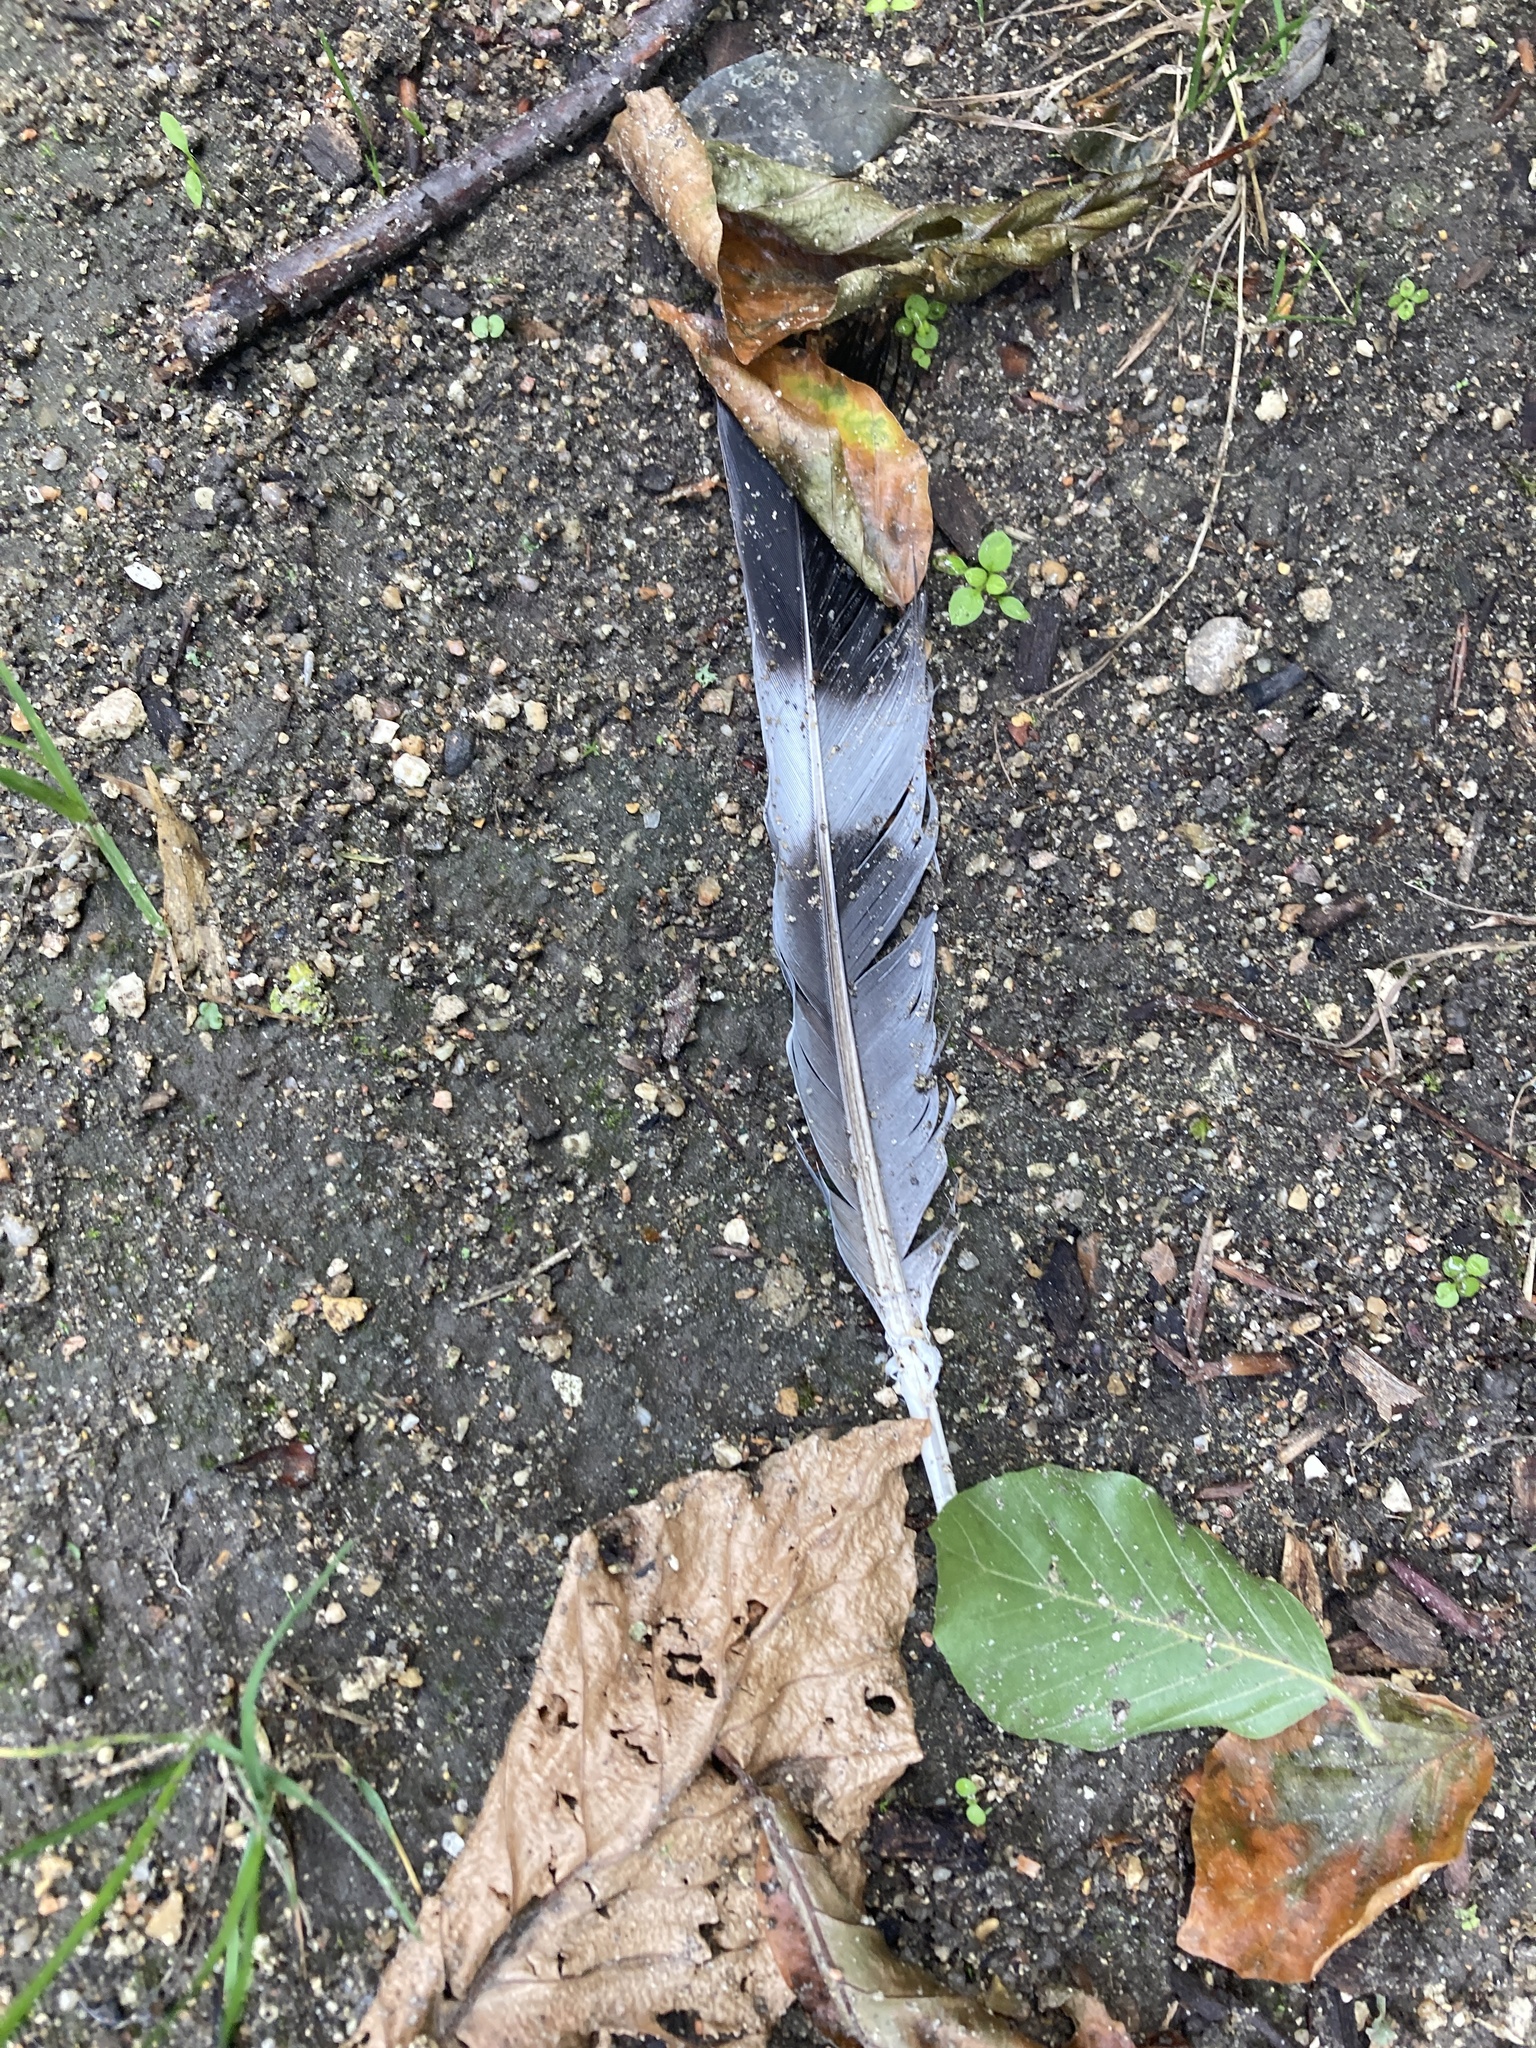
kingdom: Animalia
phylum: Chordata
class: Aves
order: Columbiformes
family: Columbidae
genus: Columba
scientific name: Columba palumbus
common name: Common wood pigeon
